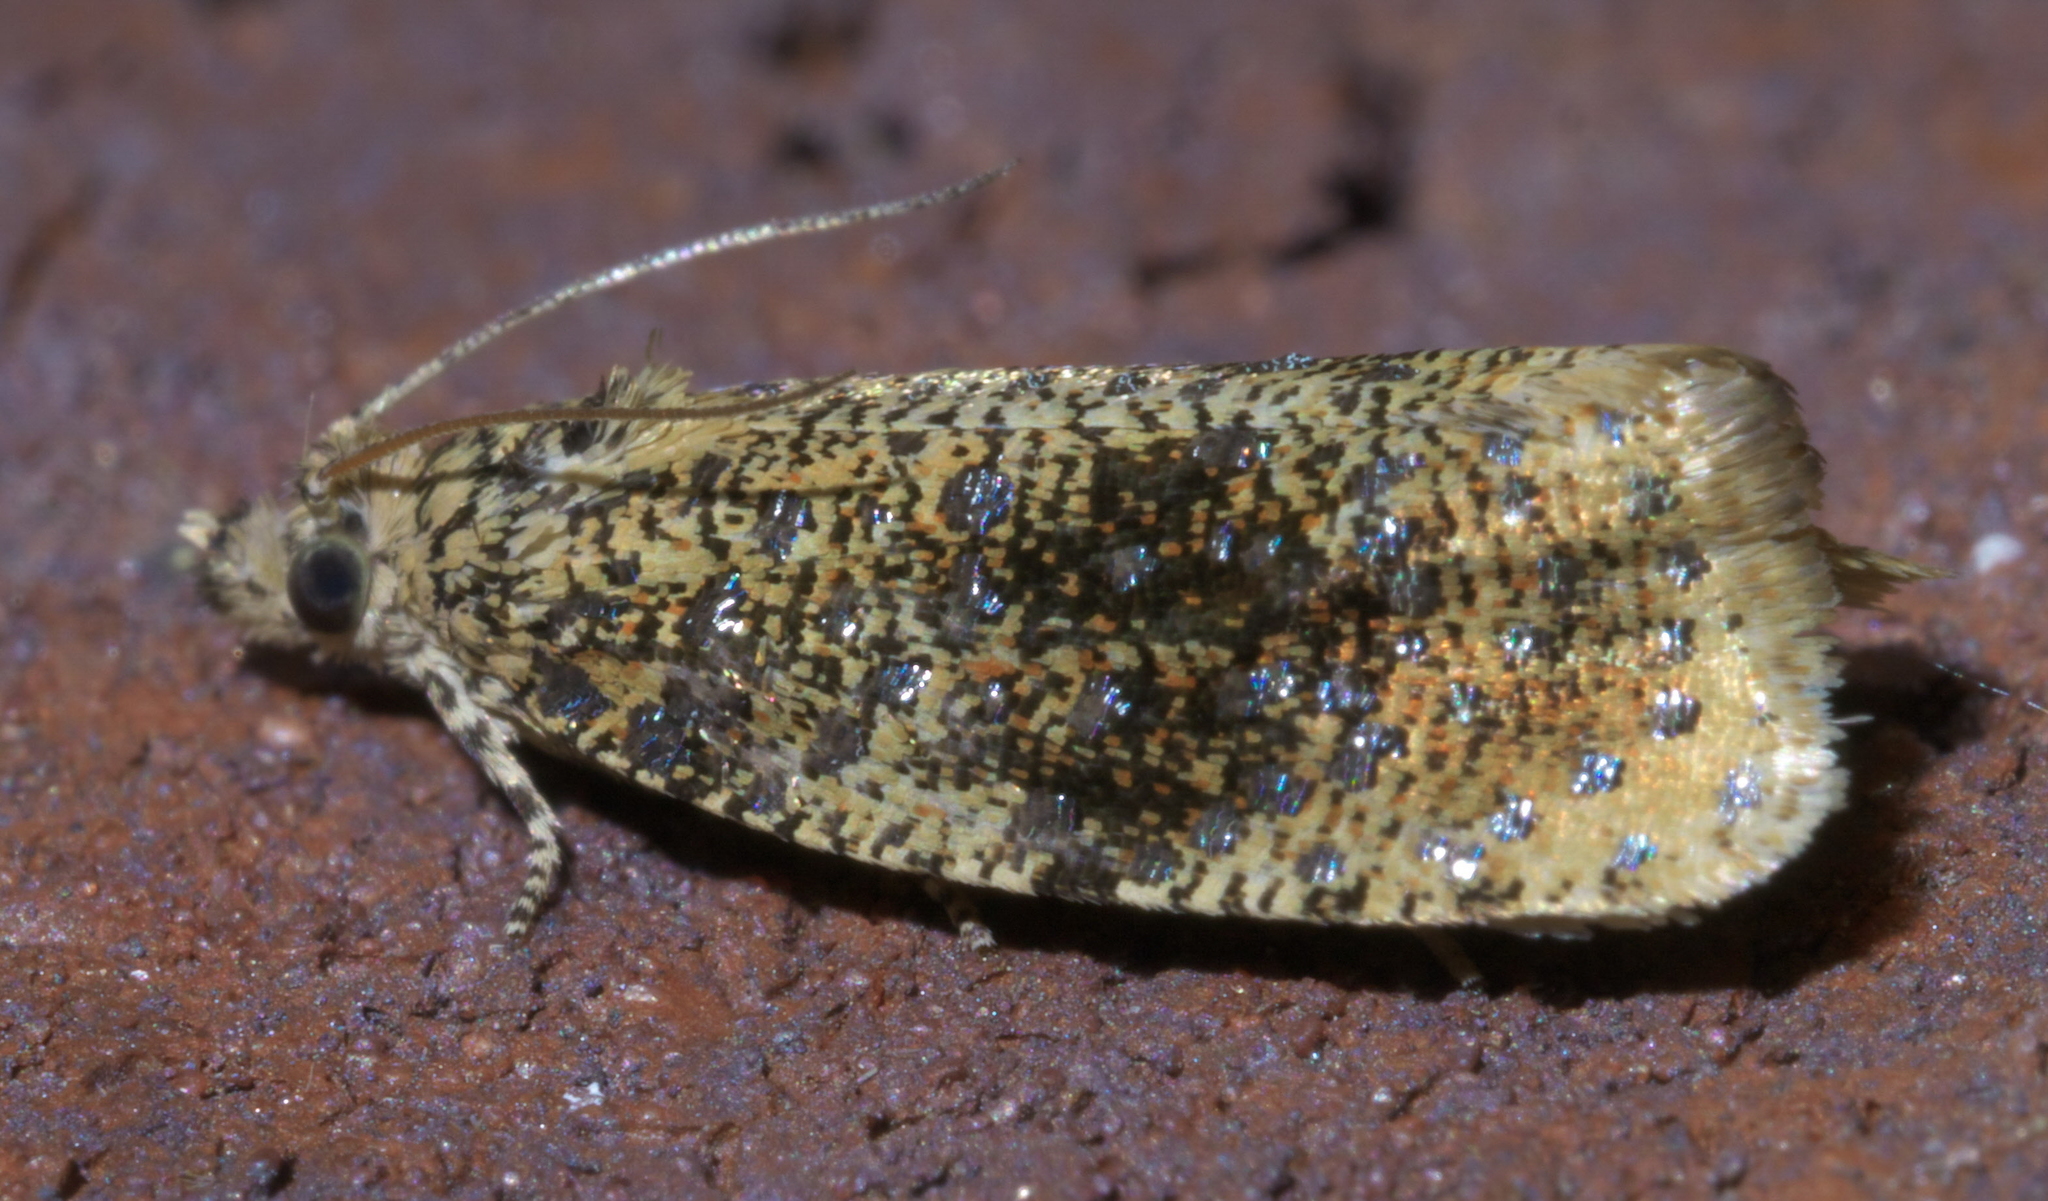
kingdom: Animalia
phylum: Arthropoda
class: Insecta
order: Lepidoptera
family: Tortricidae
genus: Olethreutes
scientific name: Olethreutes astrologana
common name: Astronomer moth
